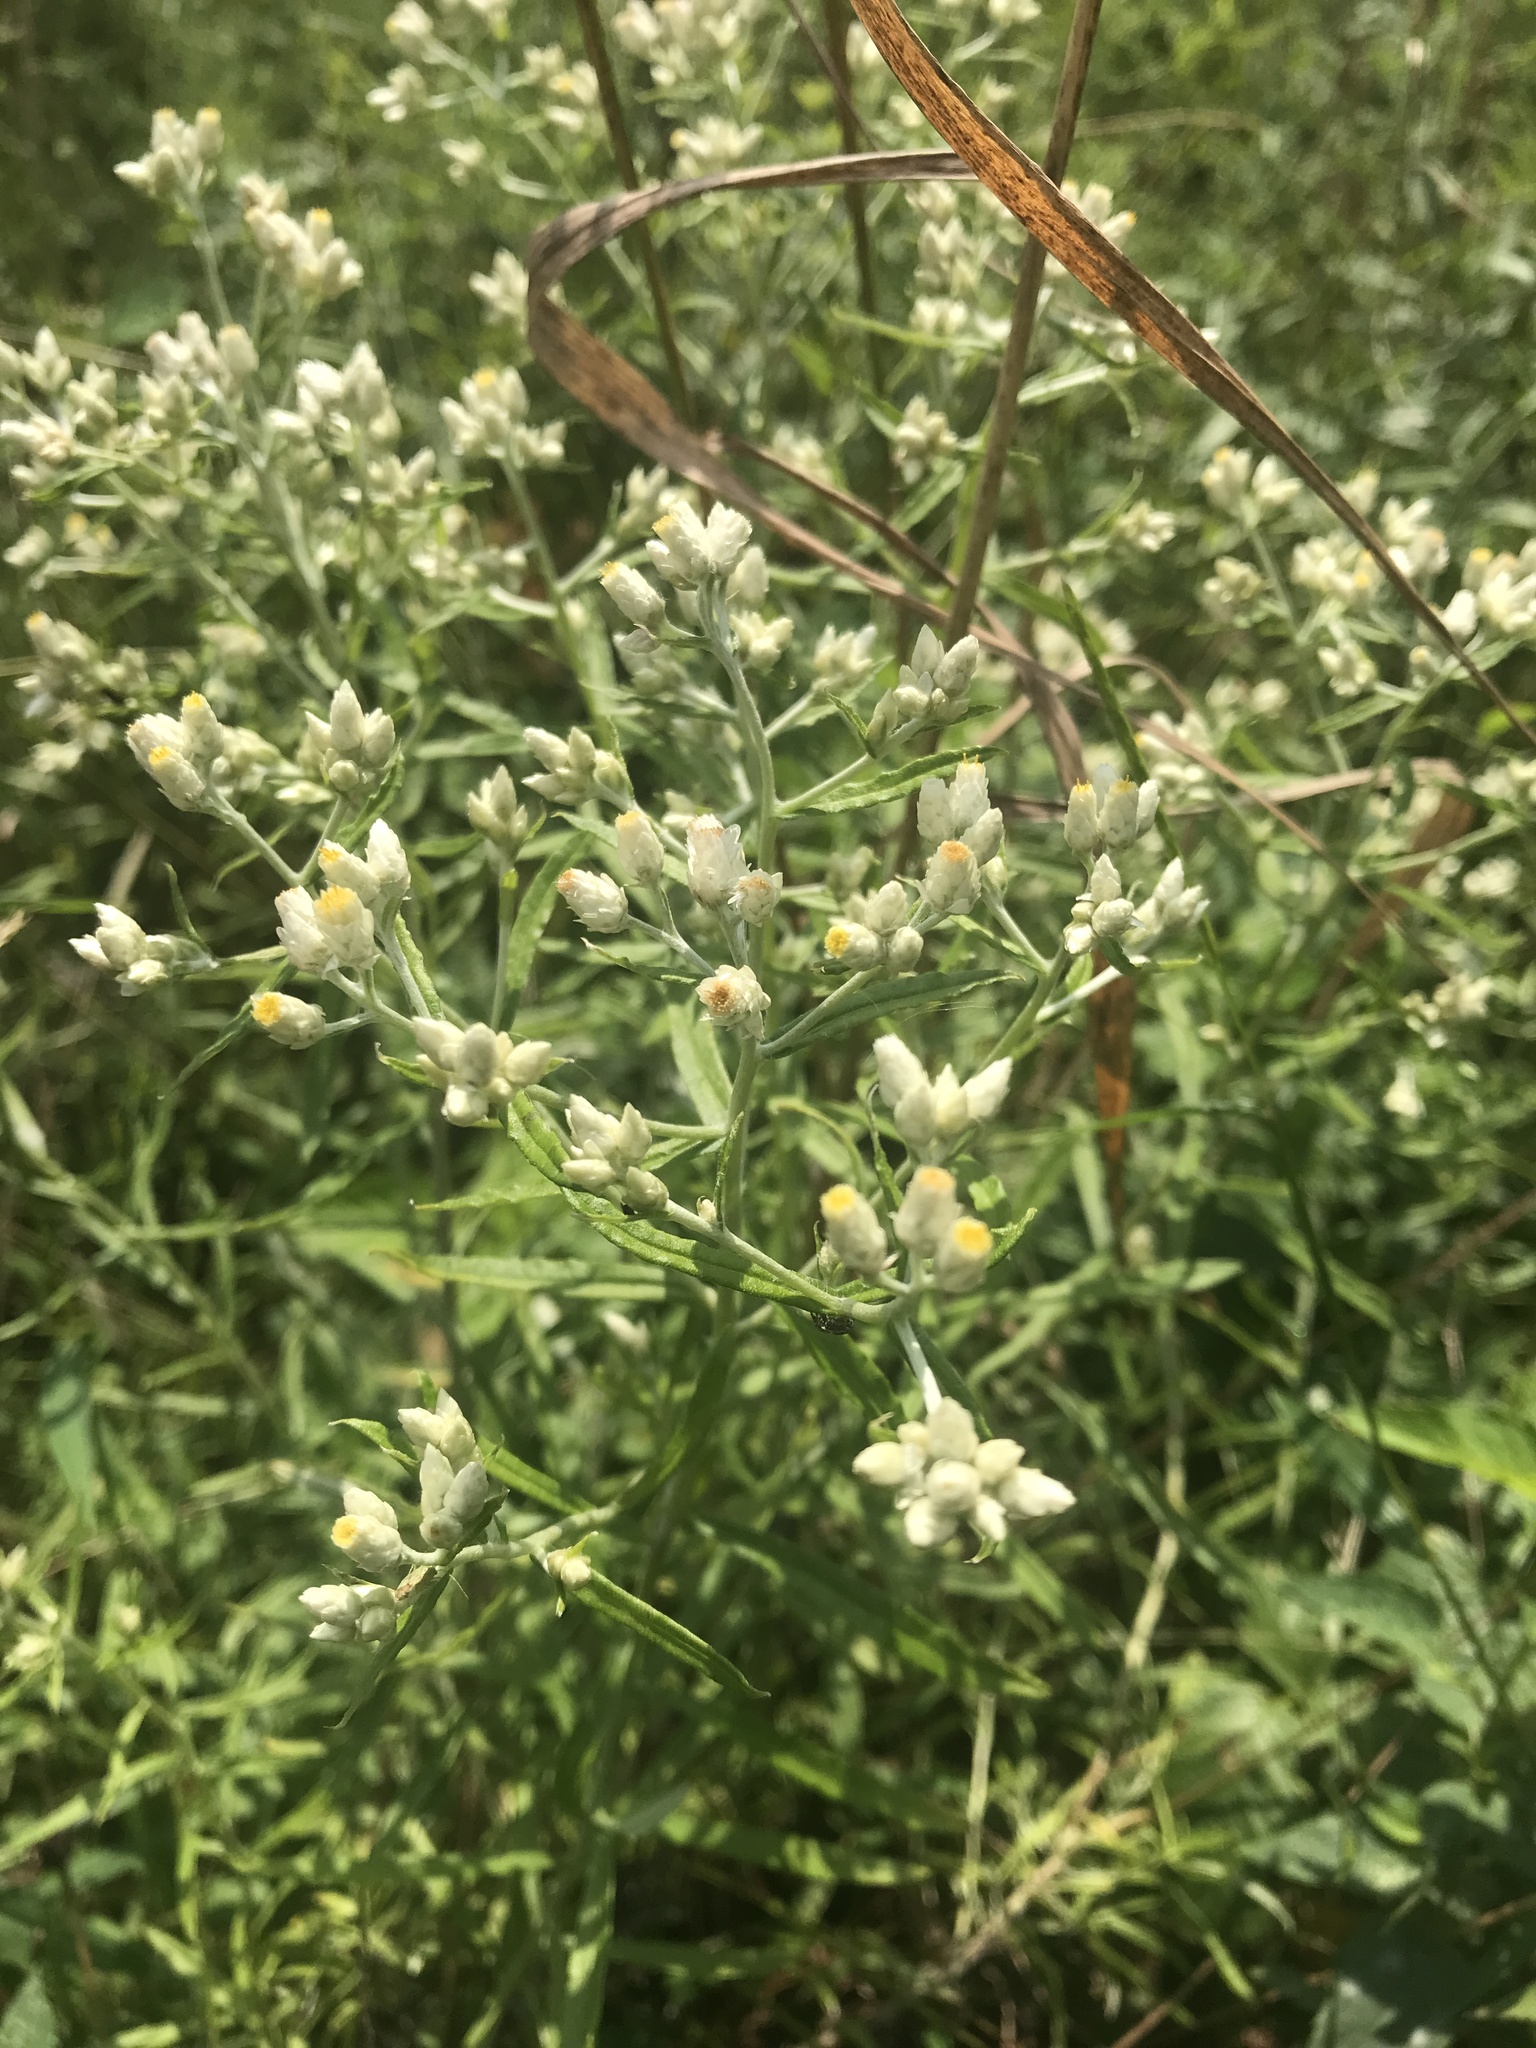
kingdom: Plantae
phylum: Tracheophyta
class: Magnoliopsida
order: Asterales
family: Asteraceae
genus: Pseudognaphalium
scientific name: Pseudognaphalium obtusifolium
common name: Eastern rabbit-tobacco
